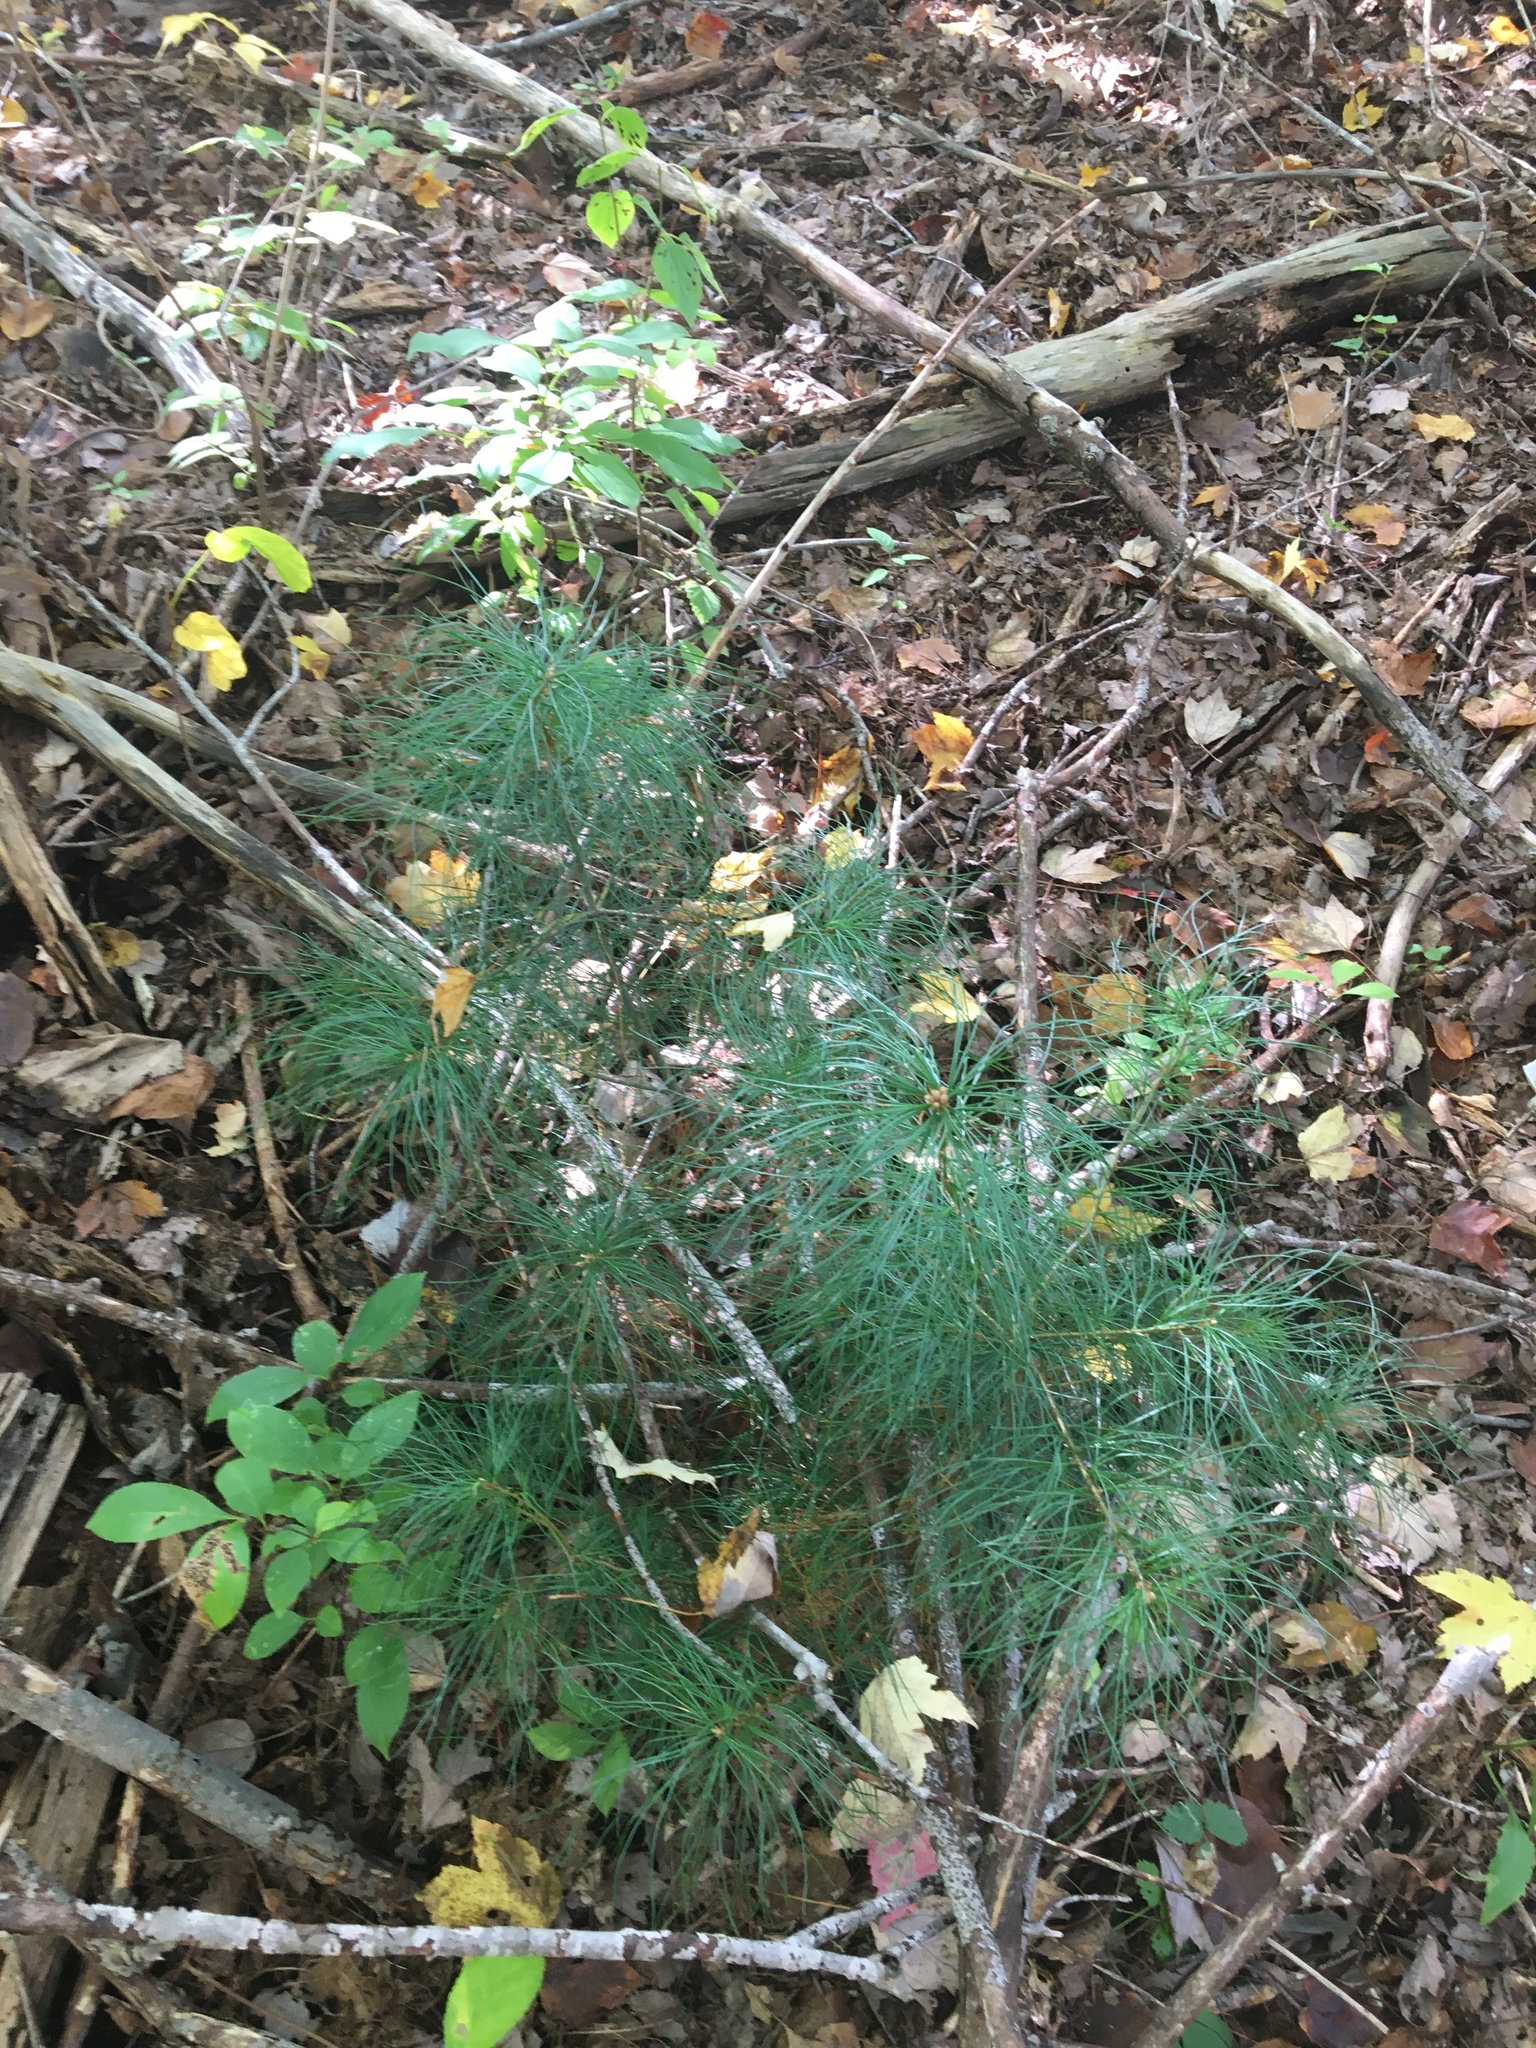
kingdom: Plantae
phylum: Tracheophyta
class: Pinopsida
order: Pinales
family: Pinaceae
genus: Pinus
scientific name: Pinus strobus
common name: Weymouth pine
